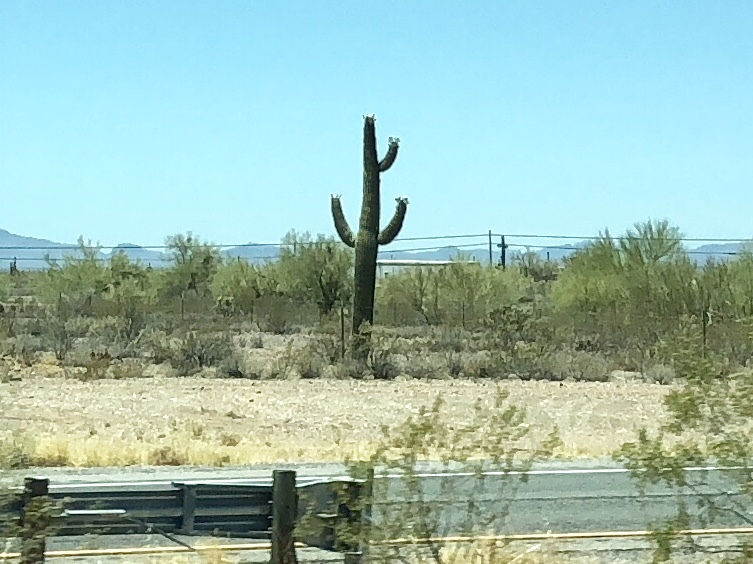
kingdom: Plantae
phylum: Tracheophyta
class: Magnoliopsida
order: Caryophyllales
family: Cactaceae
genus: Carnegiea
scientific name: Carnegiea gigantea
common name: Saguaro
